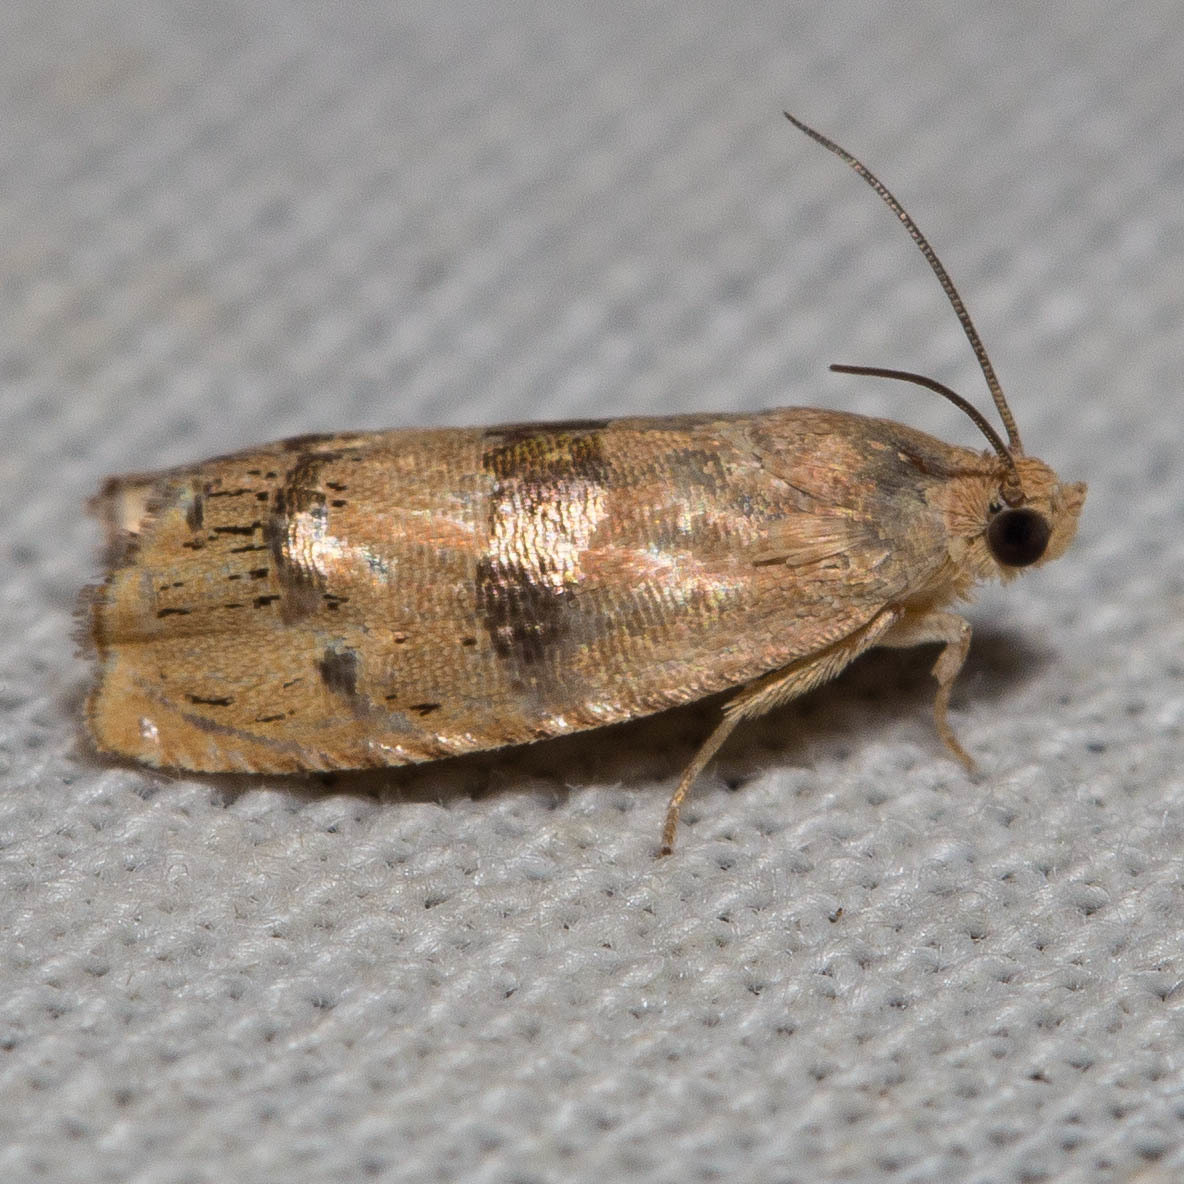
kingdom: Animalia
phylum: Arthropoda
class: Insecta
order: Lepidoptera
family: Tortricidae
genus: Cydia
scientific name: Cydia latiferreana
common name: Filbertworm moth
